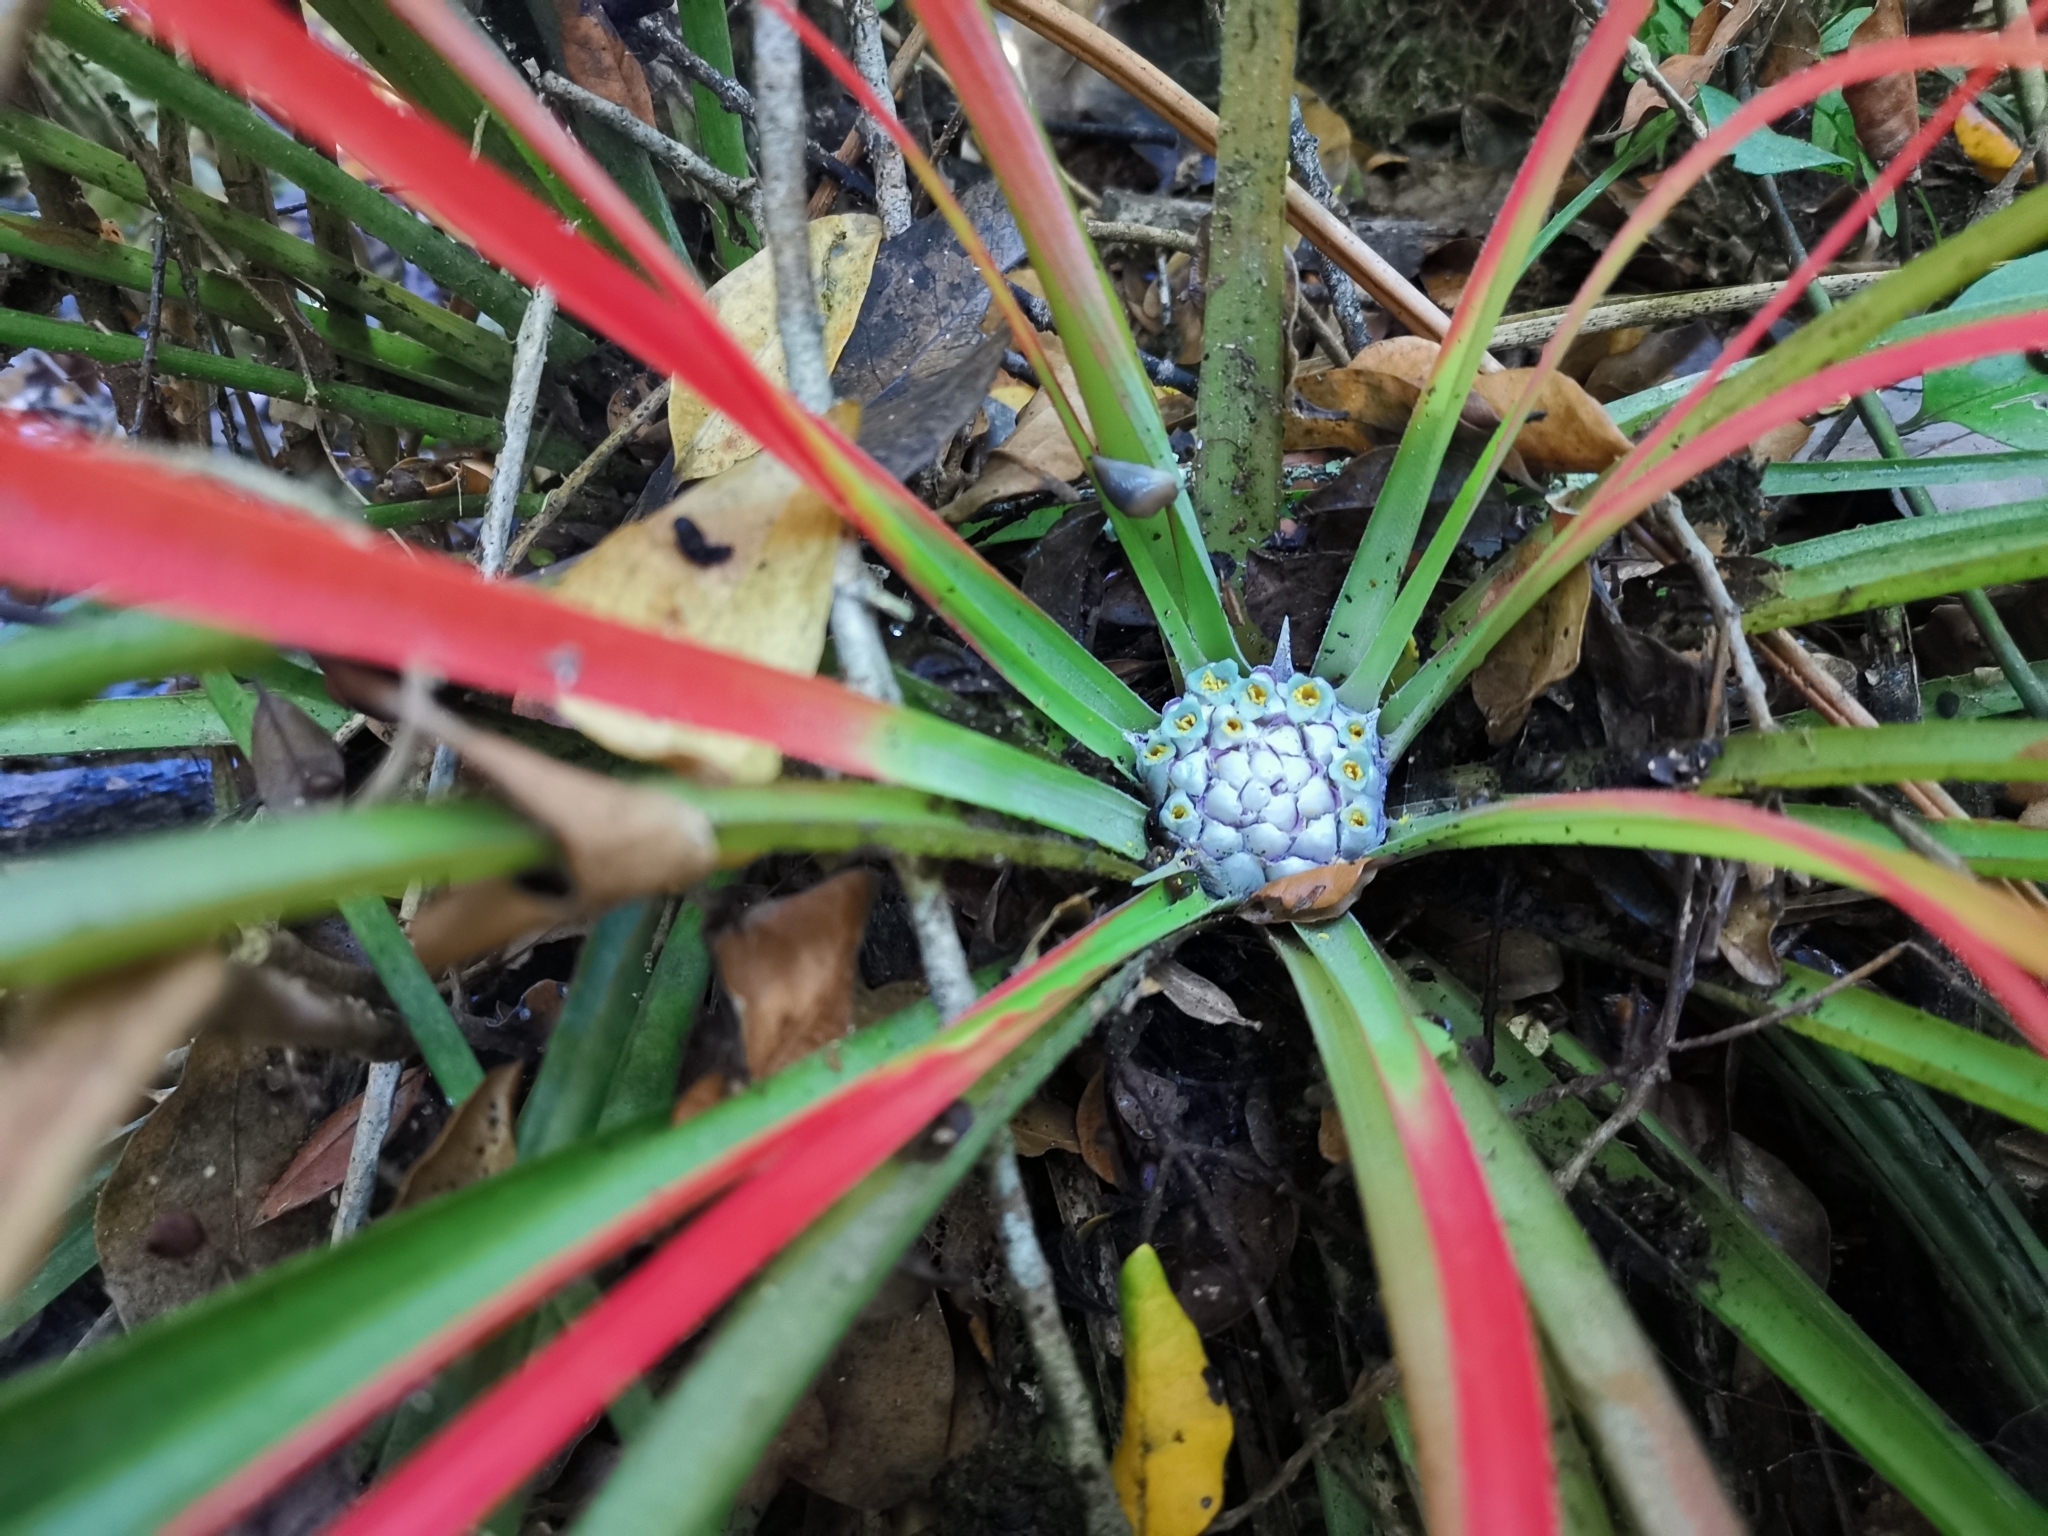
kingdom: Plantae
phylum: Tracheophyta
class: Liliopsida
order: Poales
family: Bromeliaceae
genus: Fascicularia
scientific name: Fascicularia bicolor
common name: Rhodostachys
